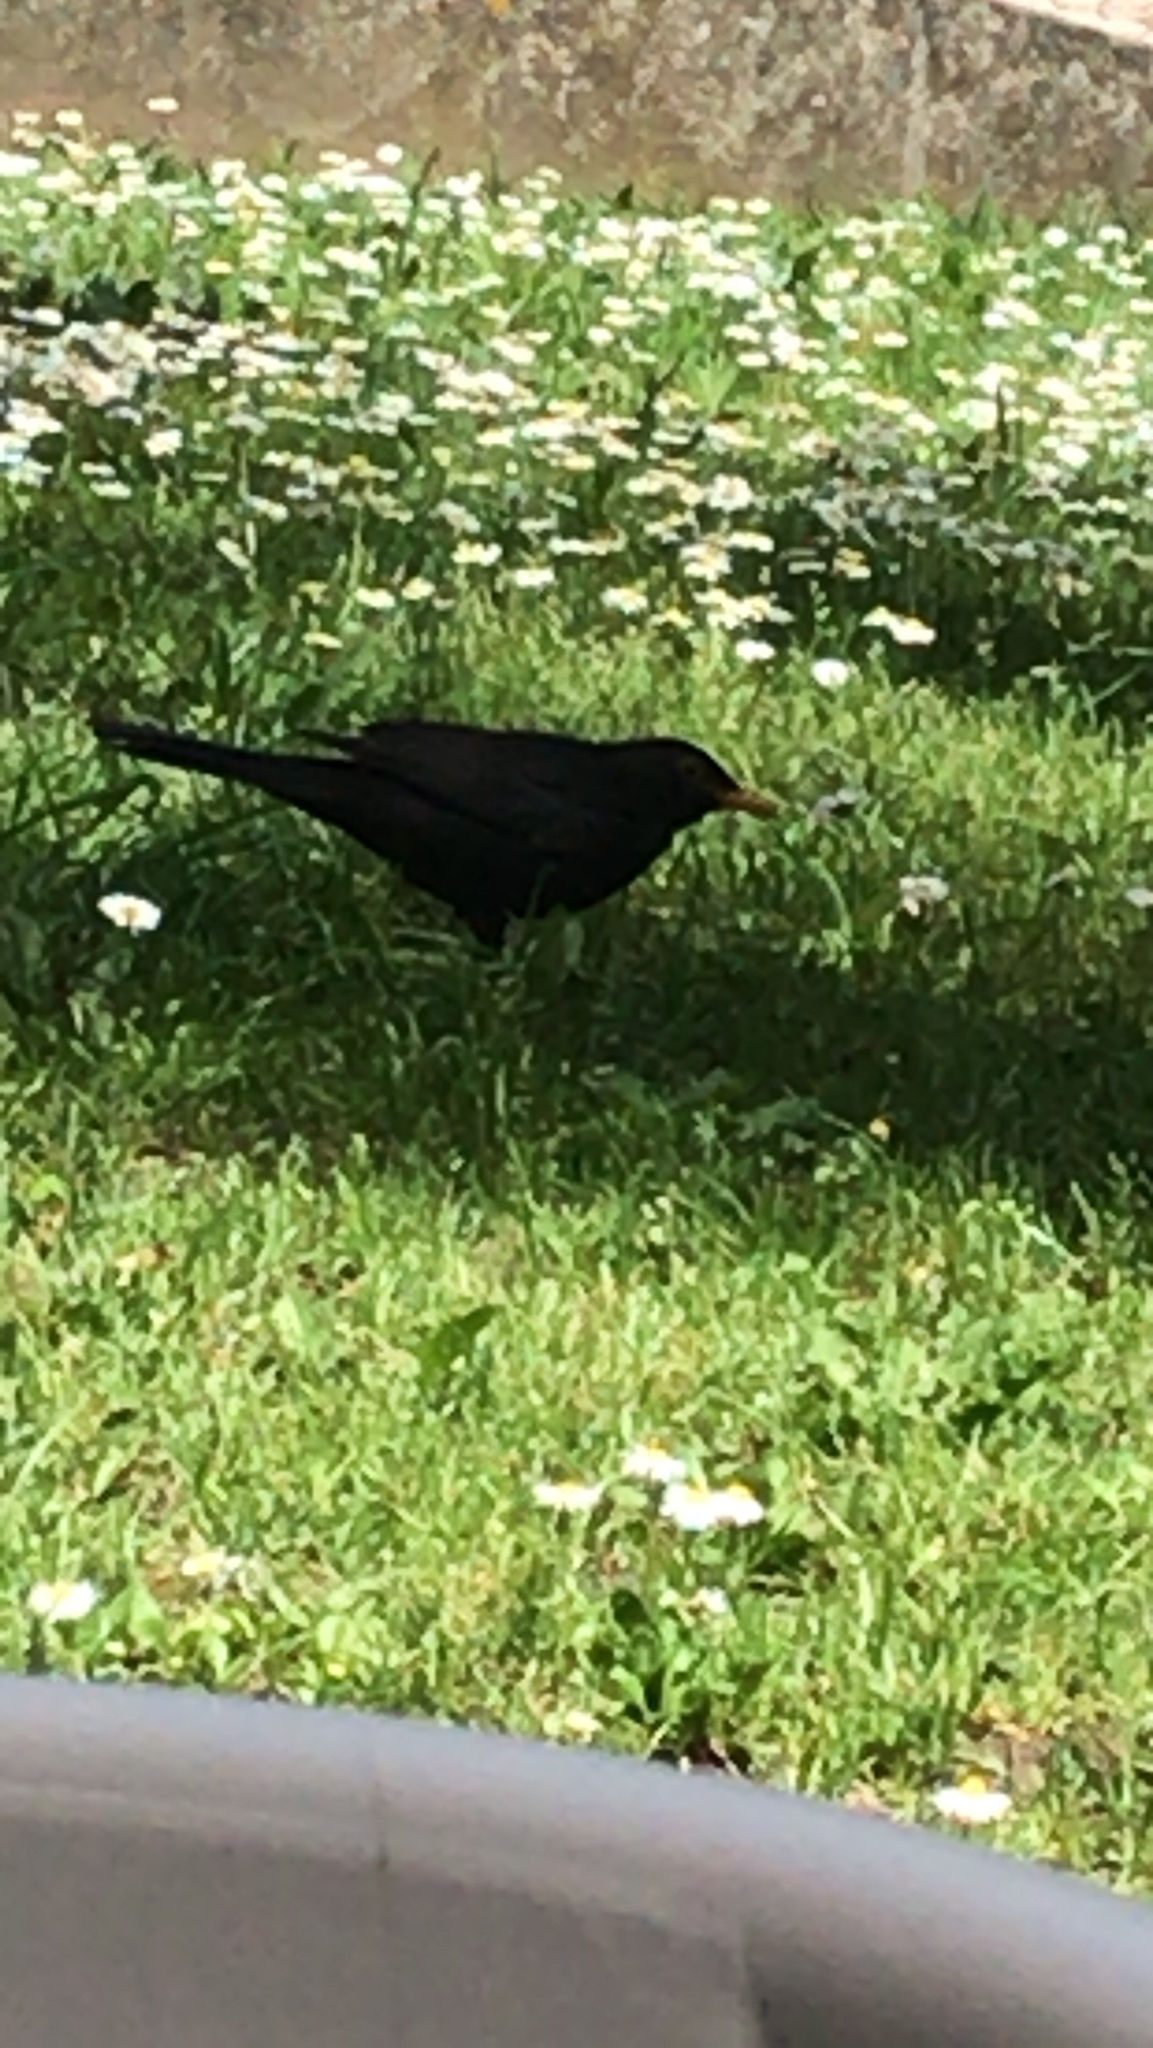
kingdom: Animalia
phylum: Chordata
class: Aves
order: Passeriformes
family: Turdidae
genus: Turdus
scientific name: Turdus merula
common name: Common blackbird
